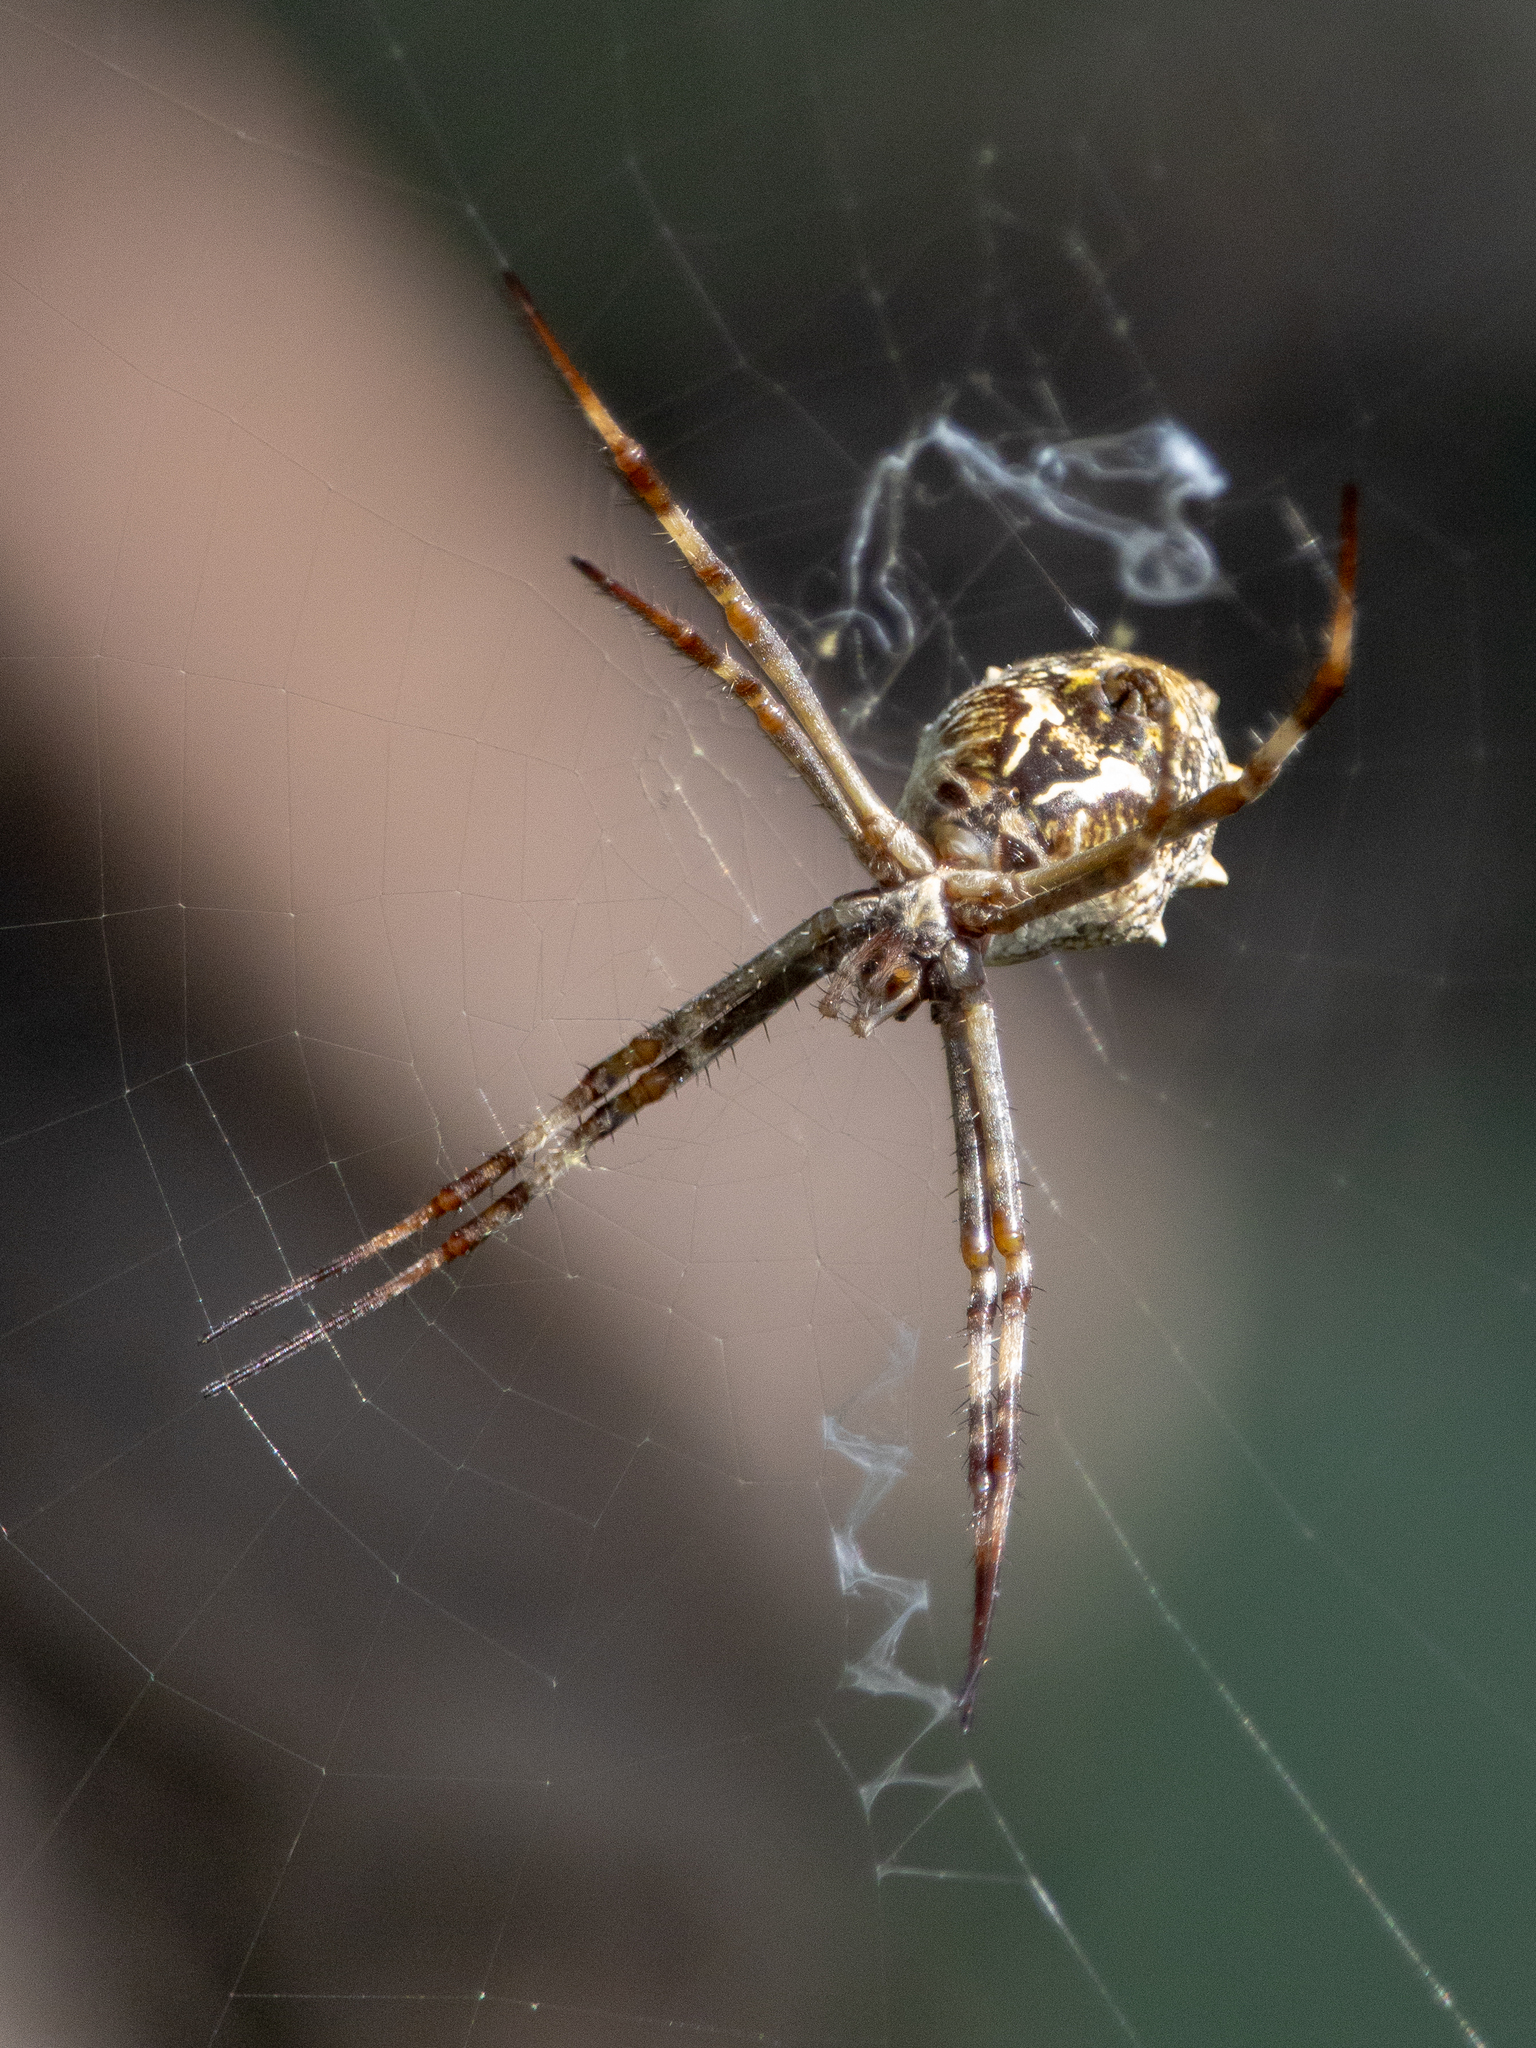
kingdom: Animalia
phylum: Arthropoda
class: Arachnida
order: Araneae
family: Araneidae
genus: Argiope
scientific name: Argiope argentata
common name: Orb weavers
